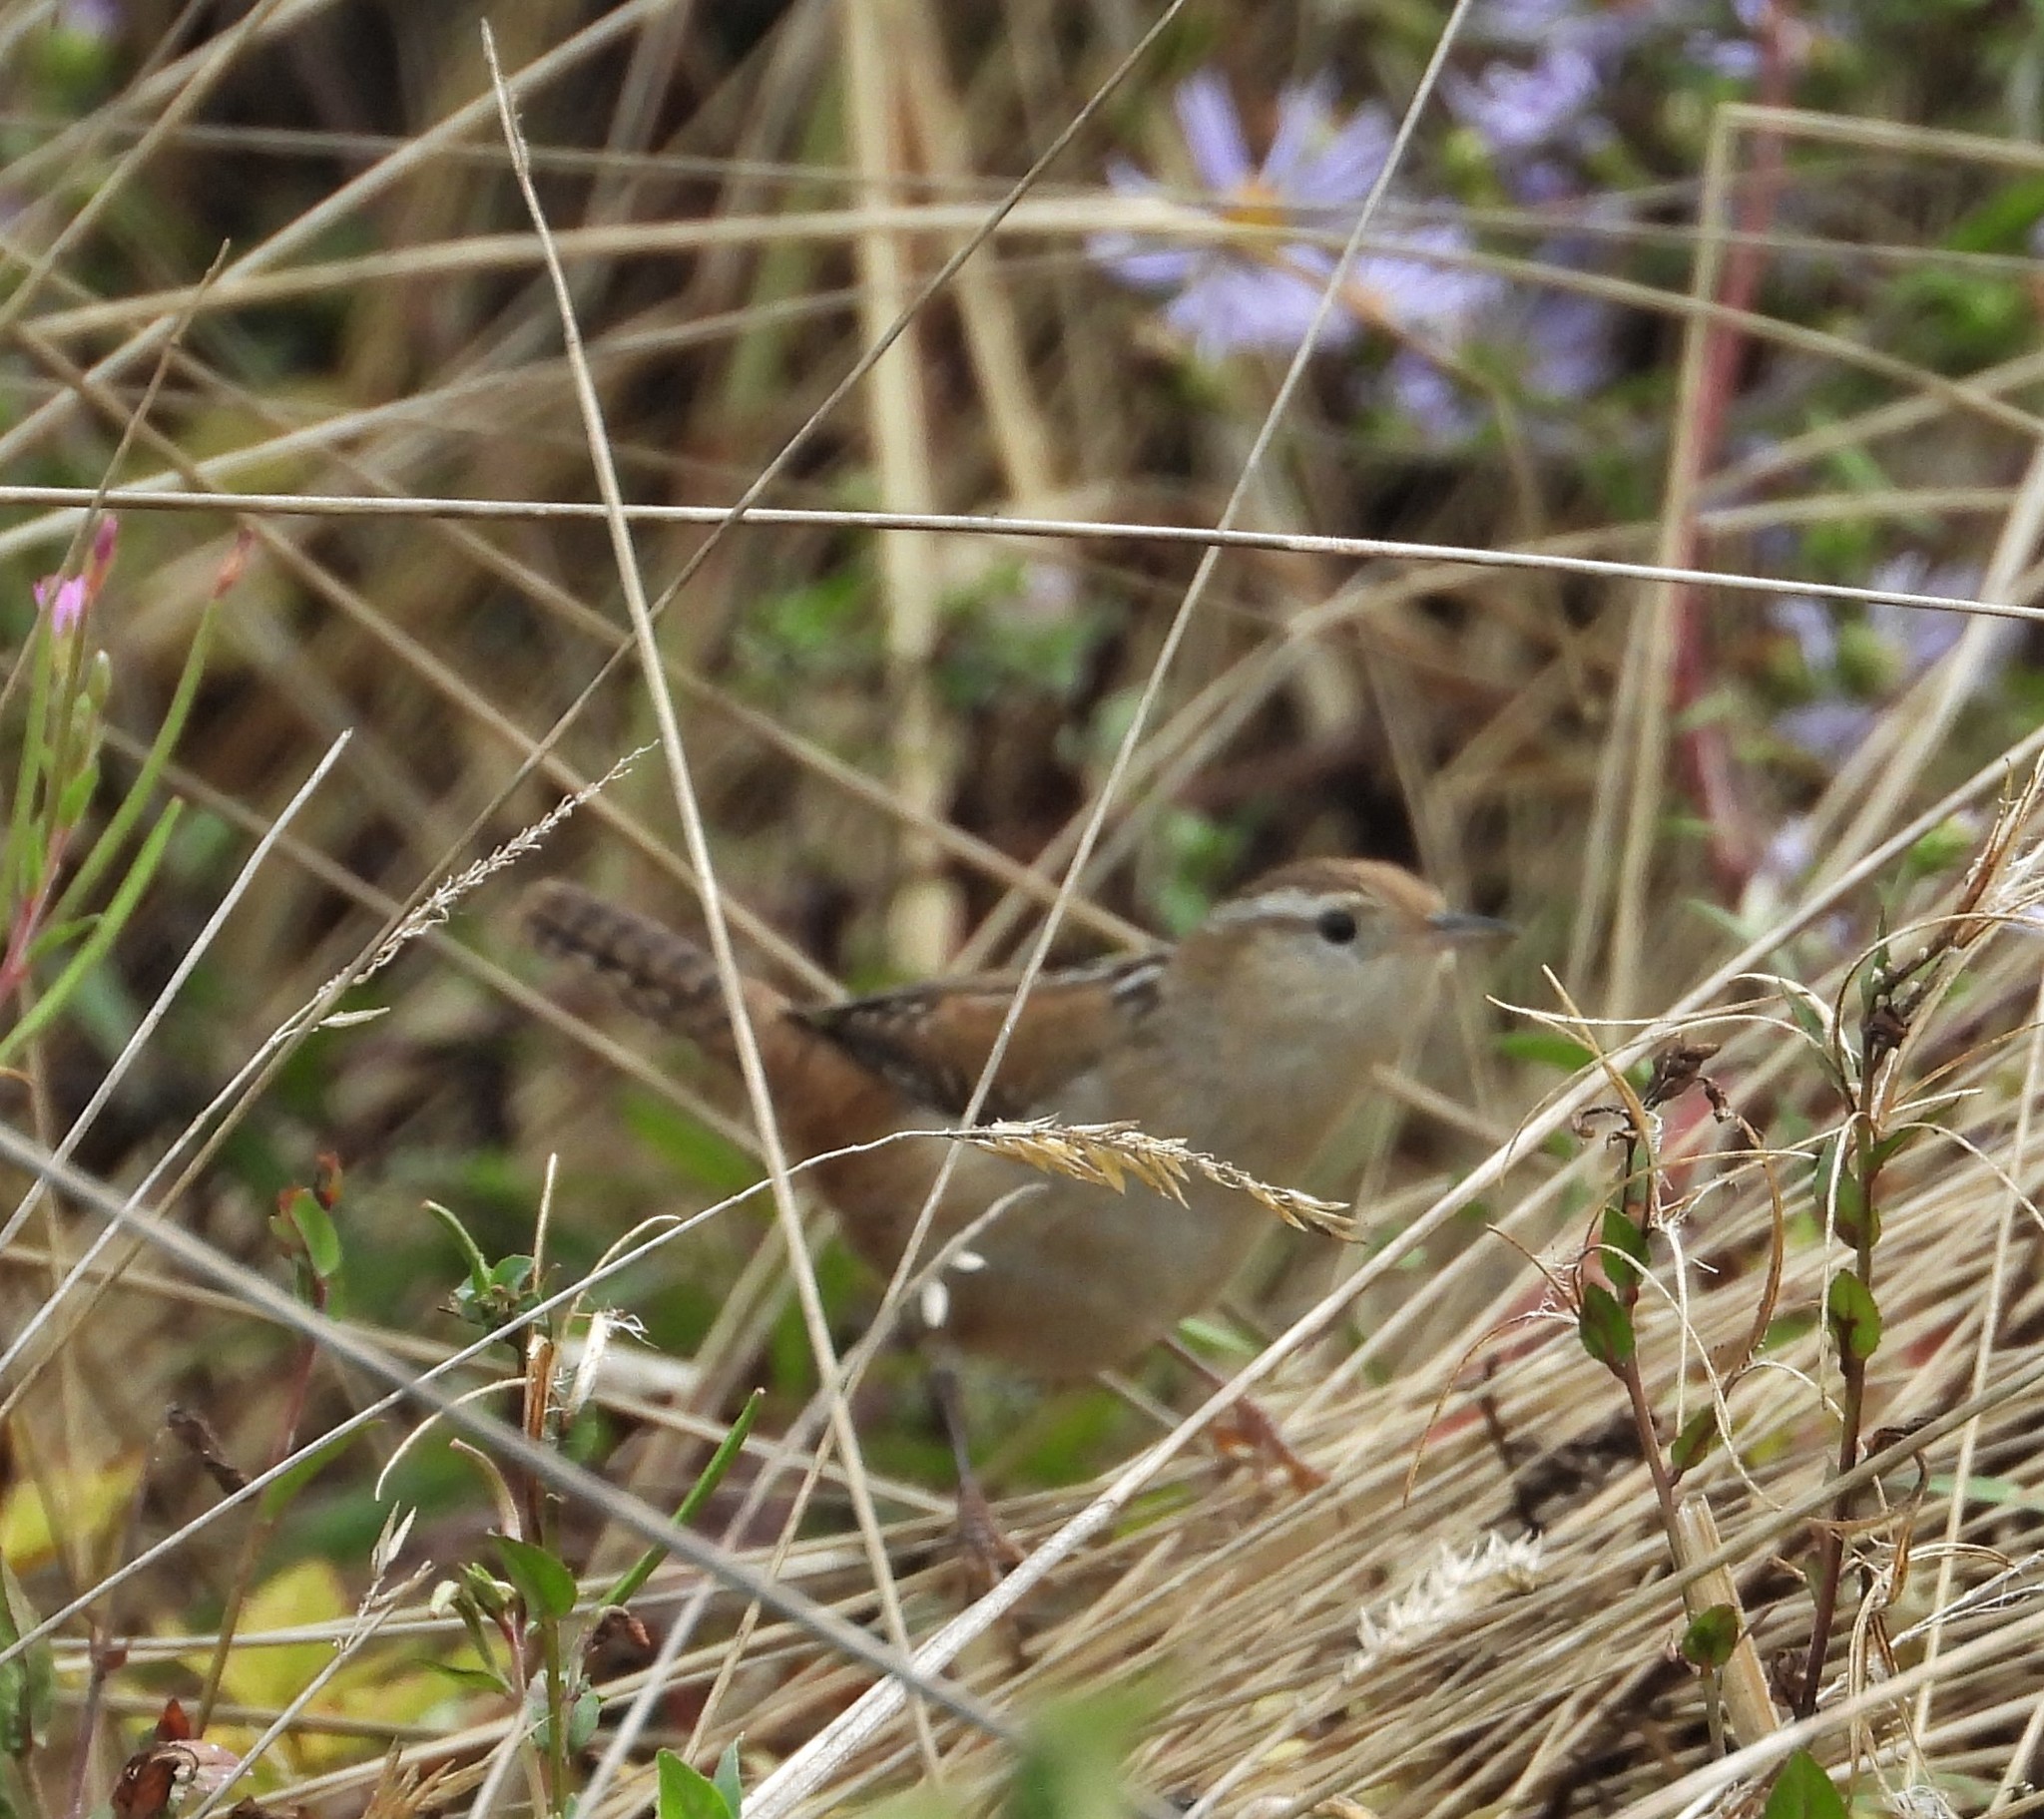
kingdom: Animalia
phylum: Chordata
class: Aves
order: Passeriformes
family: Troglodytidae
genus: Cistothorus
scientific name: Cistothorus palustris
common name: Marsh wren
